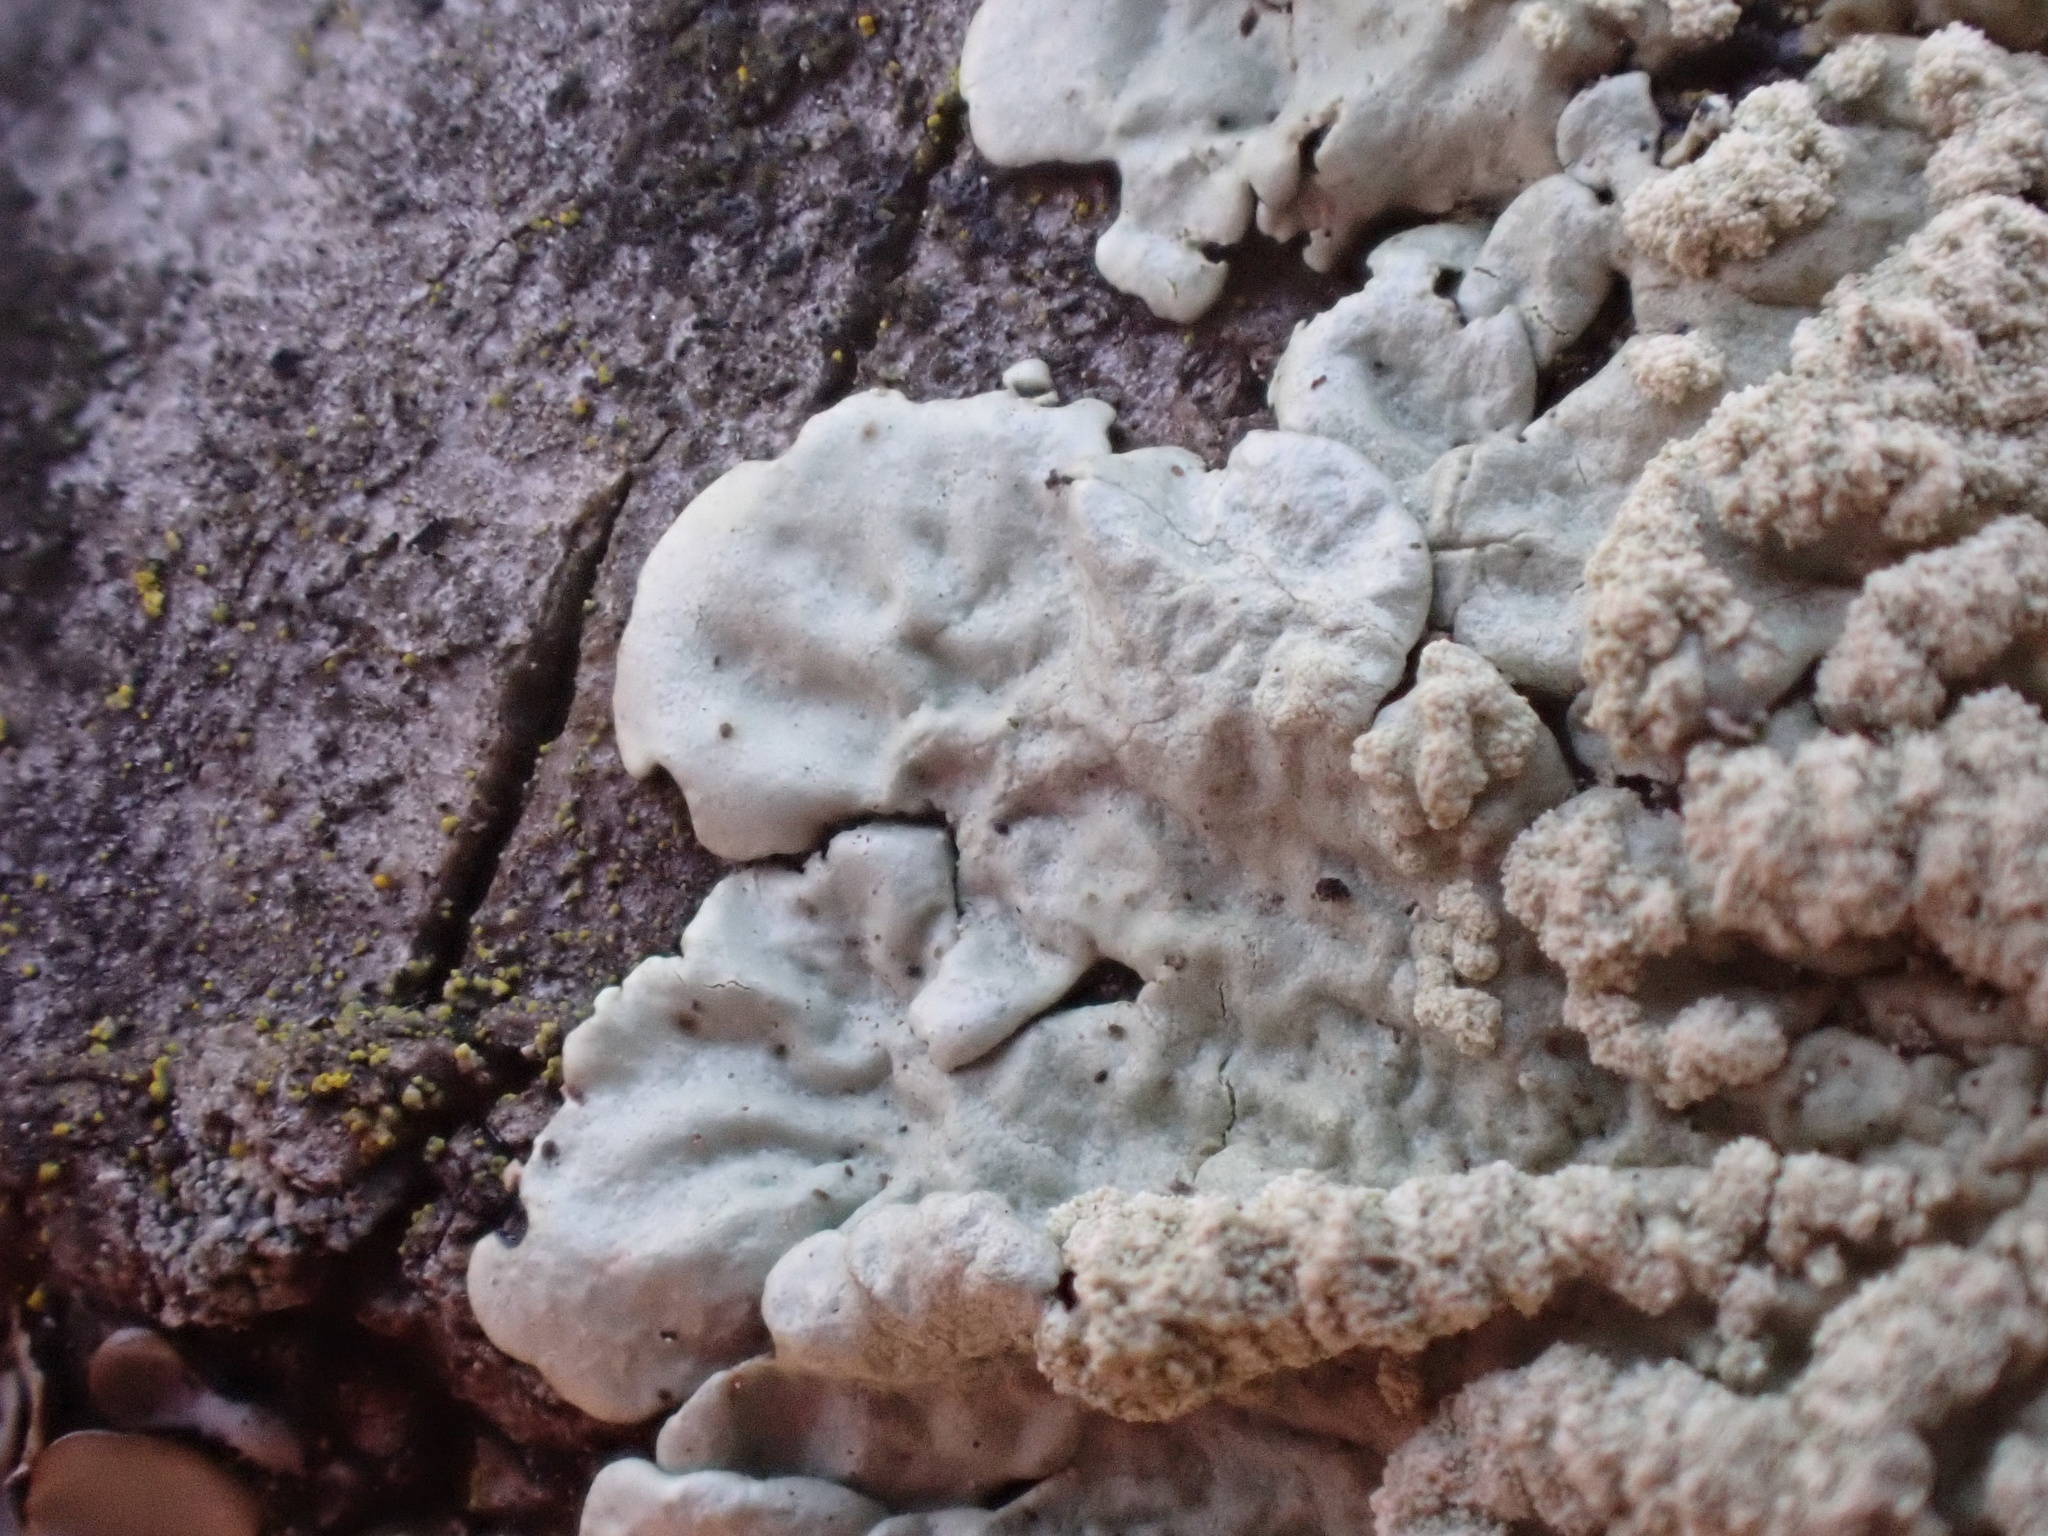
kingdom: Fungi
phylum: Ascomycota
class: Lecanoromycetes
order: Lecanorales
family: Parmeliaceae
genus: Flavoparmelia
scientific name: Flavoparmelia soredians
